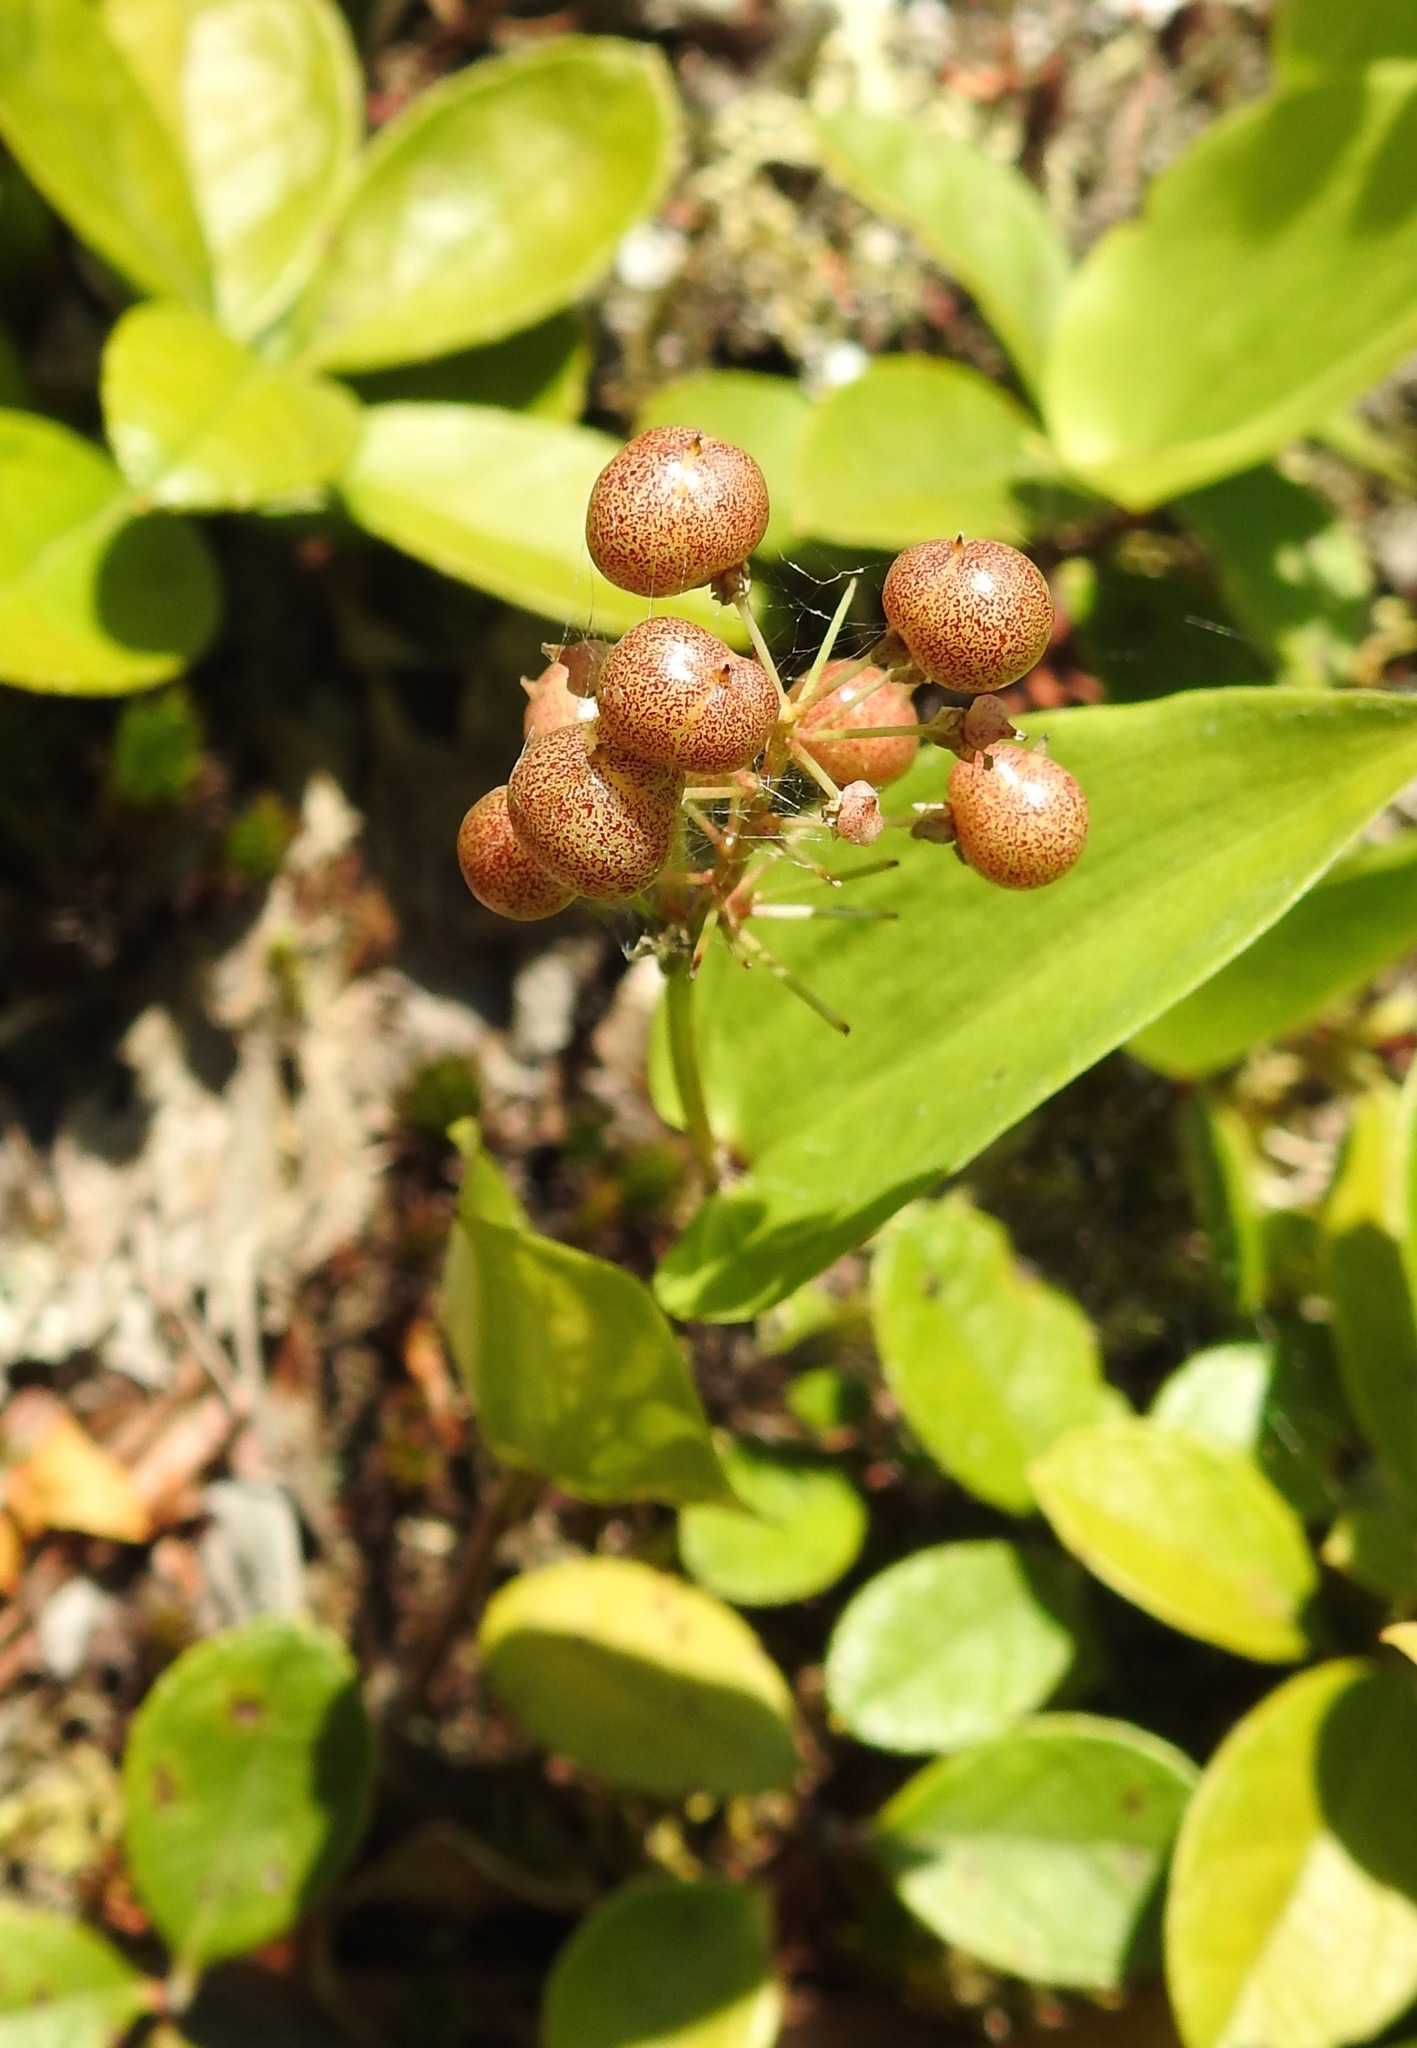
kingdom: Plantae
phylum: Tracheophyta
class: Liliopsida
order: Asparagales
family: Asparagaceae
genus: Maianthemum
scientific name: Maianthemum canadense
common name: False lily-of-the-valley
